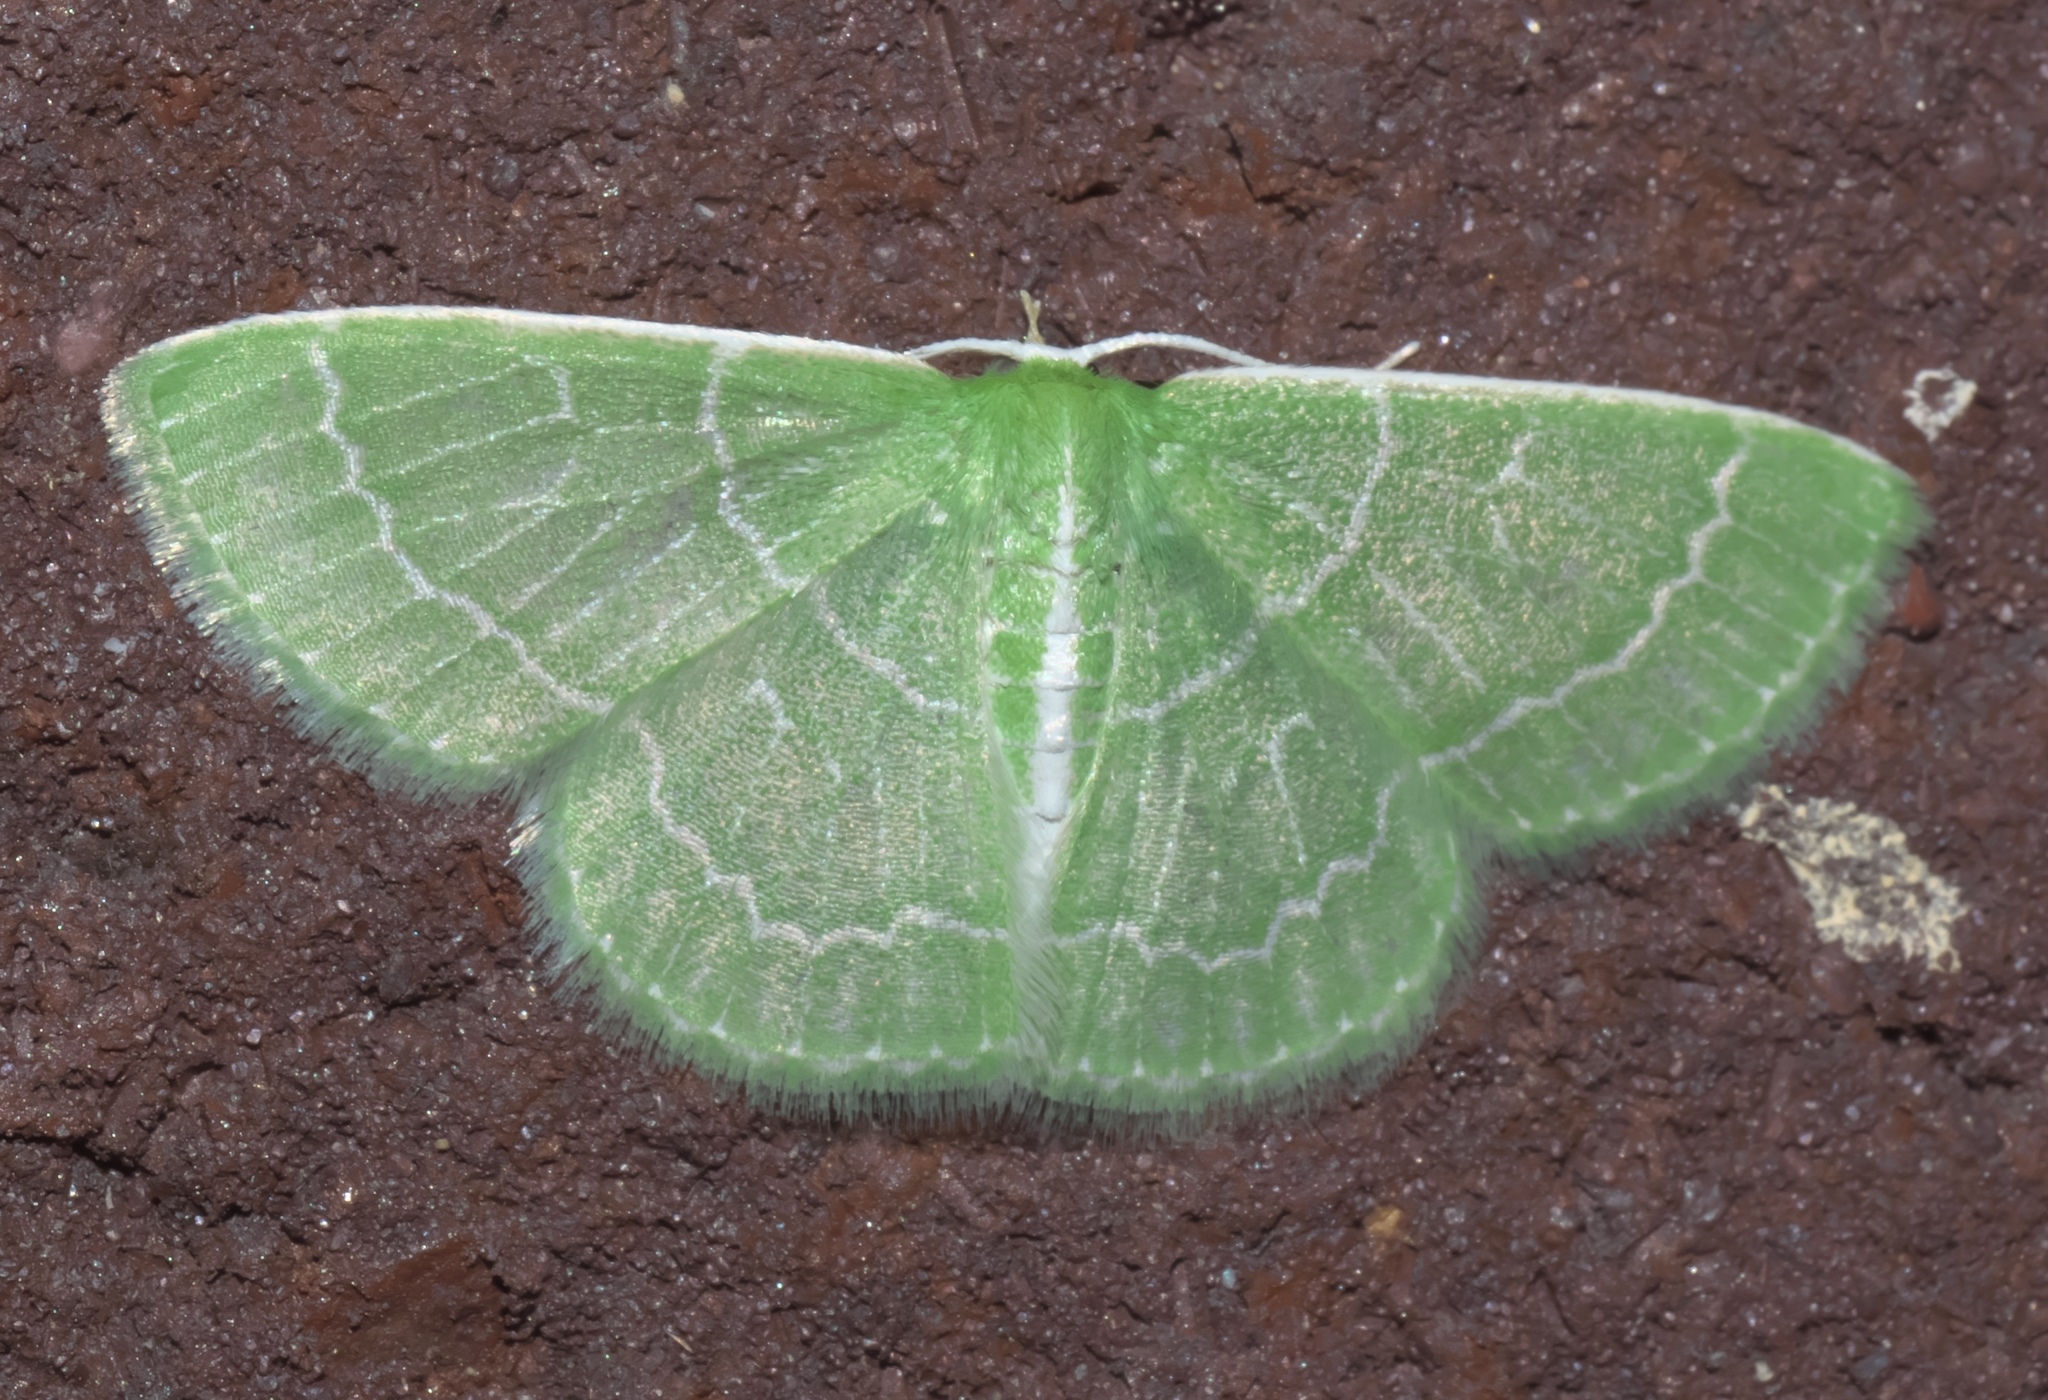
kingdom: Animalia
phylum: Arthropoda
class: Insecta
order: Lepidoptera
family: Geometridae
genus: Synchlora
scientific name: Synchlora aerata
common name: Wavy-lined emerald
